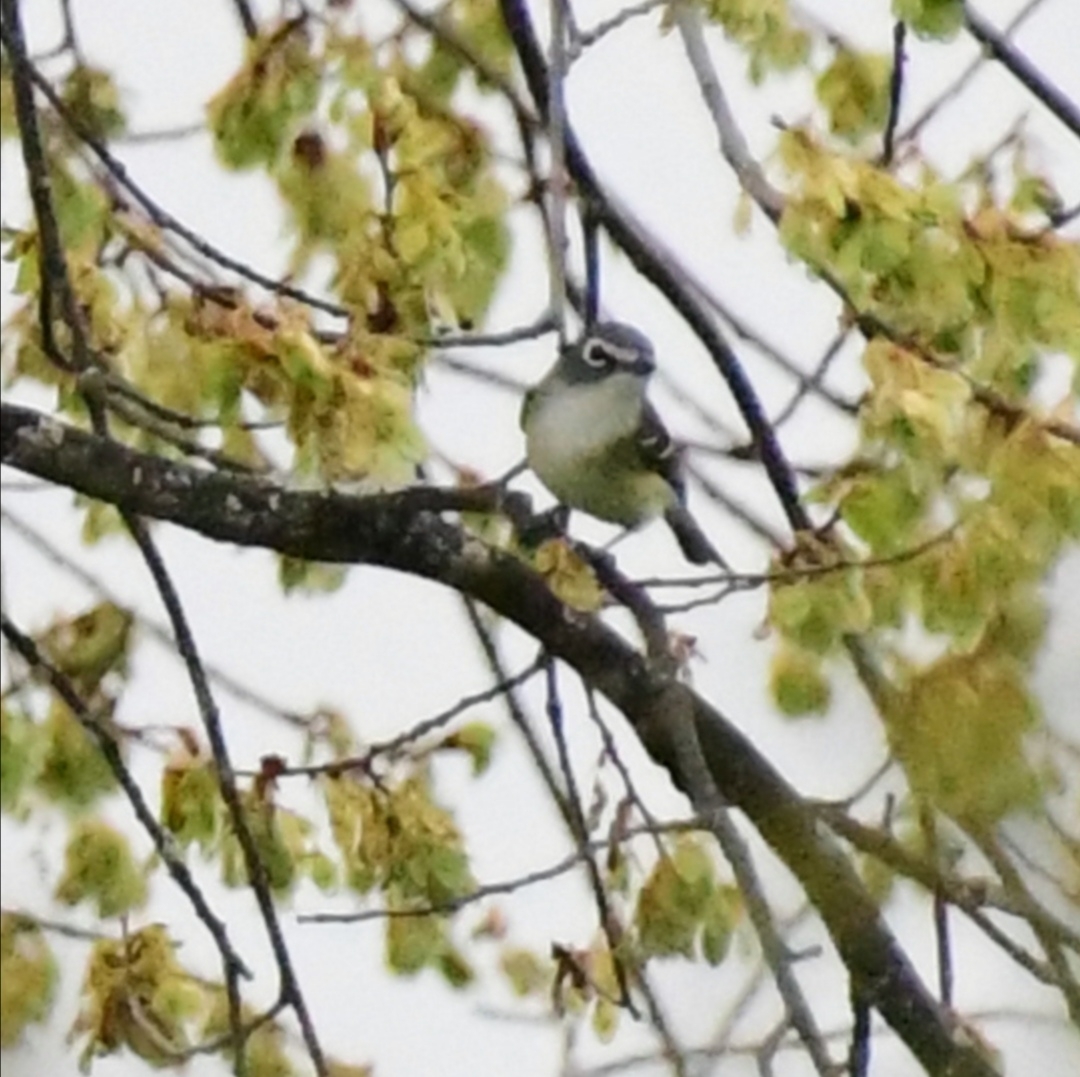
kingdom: Animalia
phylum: Chordata
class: Aves
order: Passeriformes
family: Vireonidae
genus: Vireo
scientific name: Vireo solitarius
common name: Blue-headed vireo
